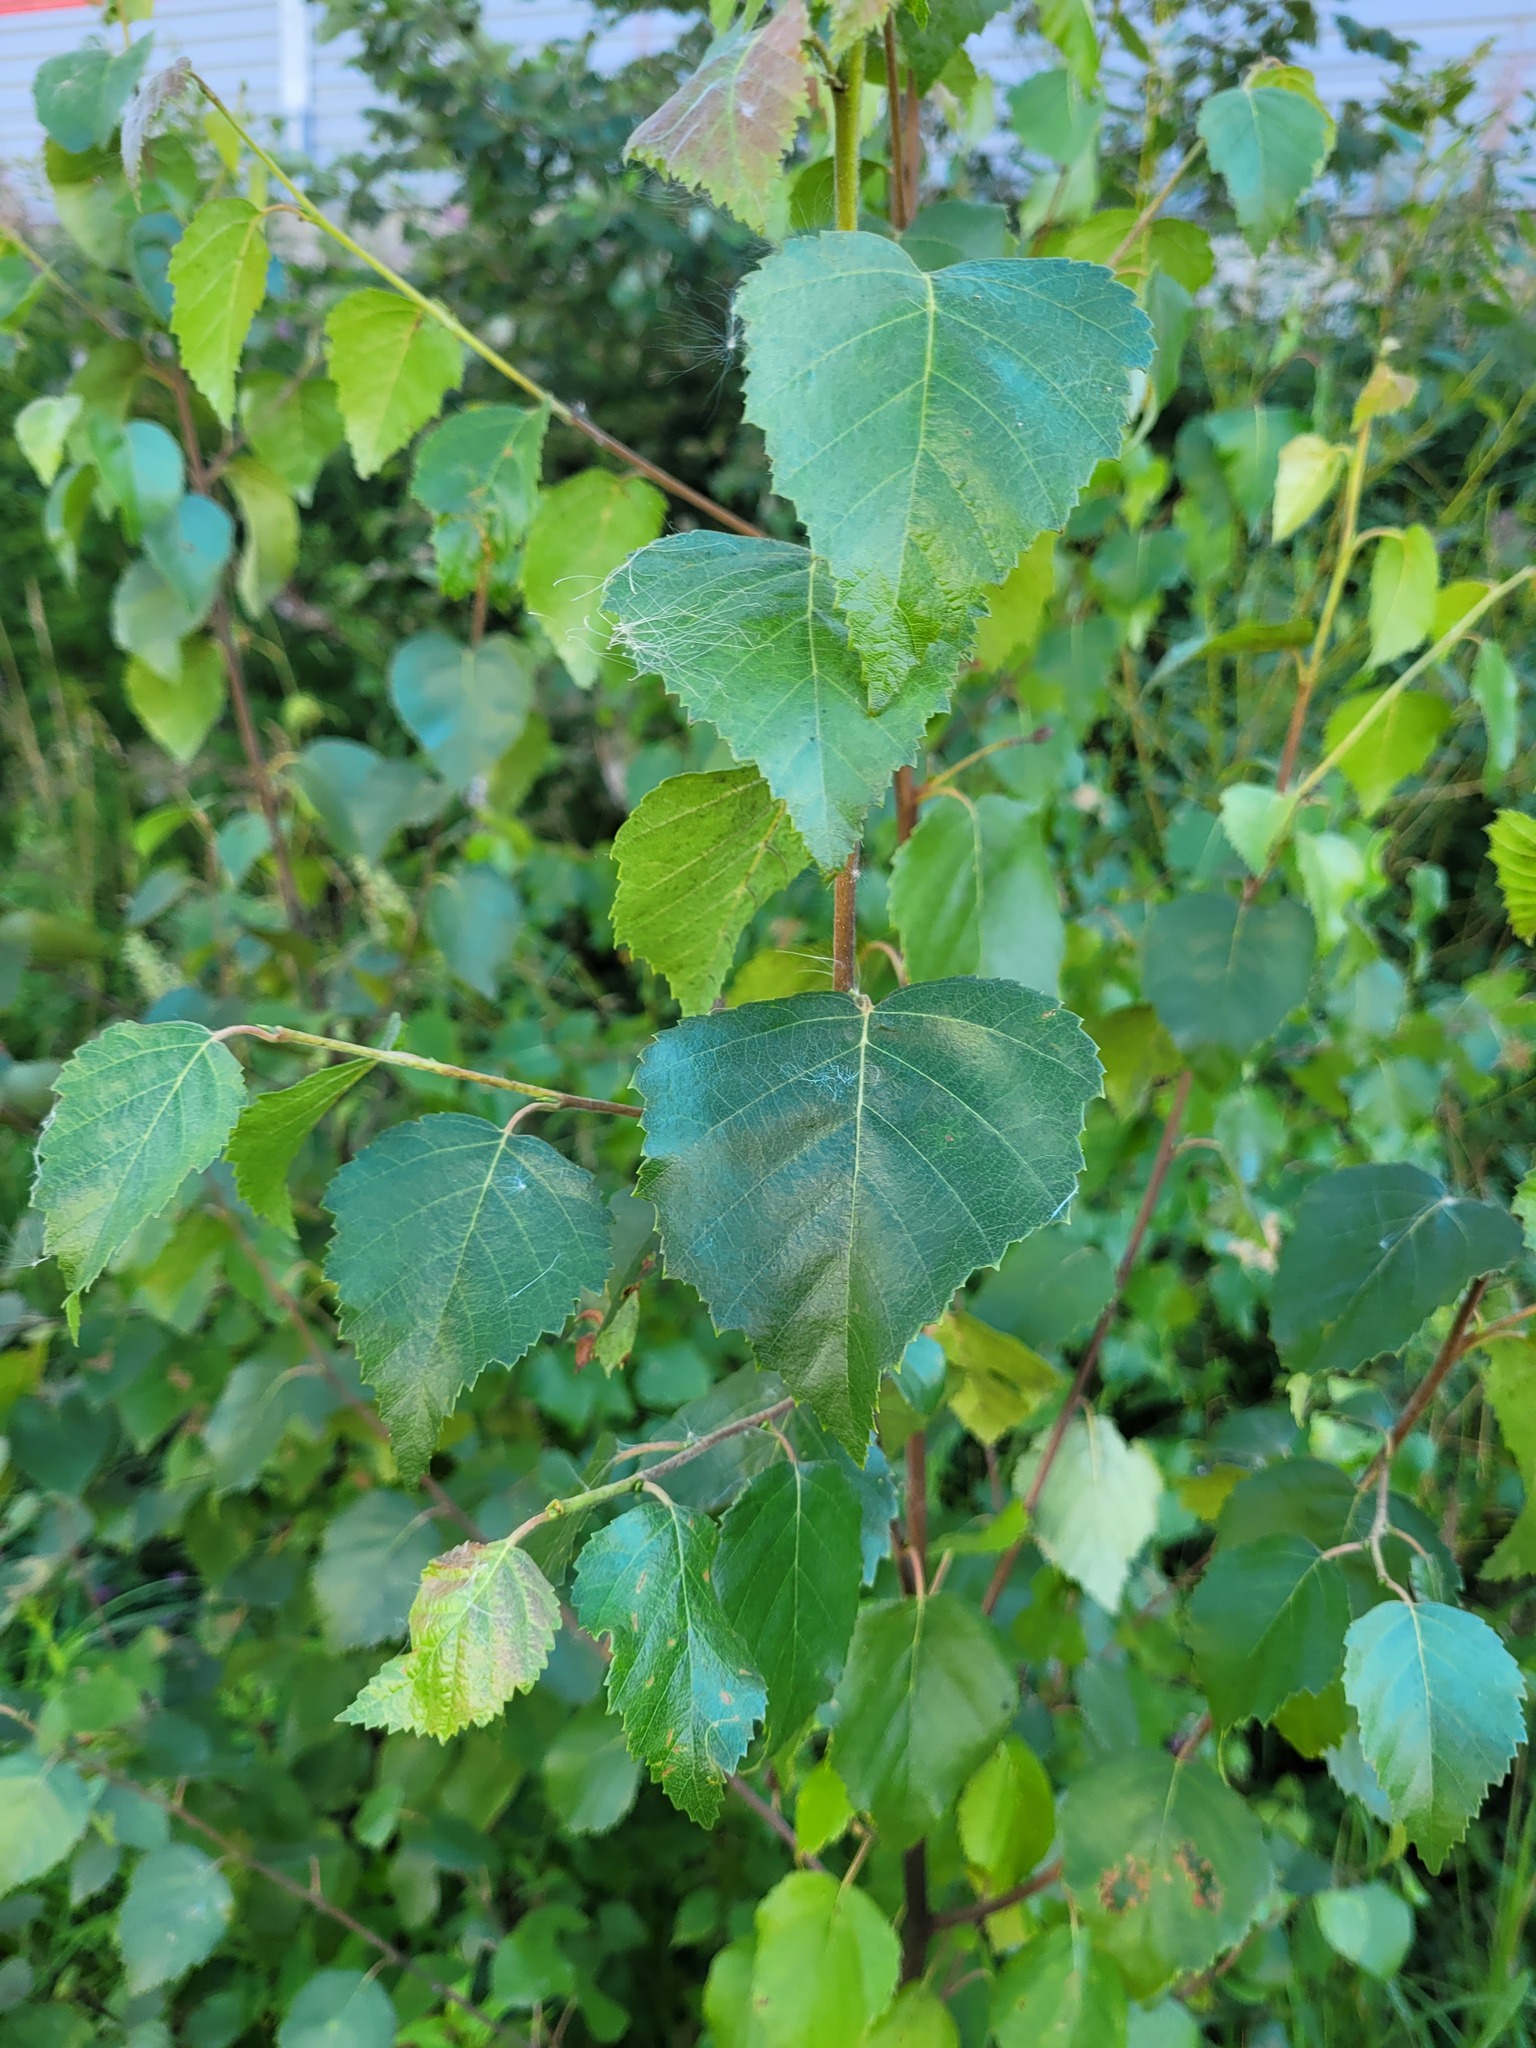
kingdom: Plantae
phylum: Tracheophyta
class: Magnoliopsida
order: Fagales
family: Betulaceae
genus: Betula
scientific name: Betula pubescens
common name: Downy birch
